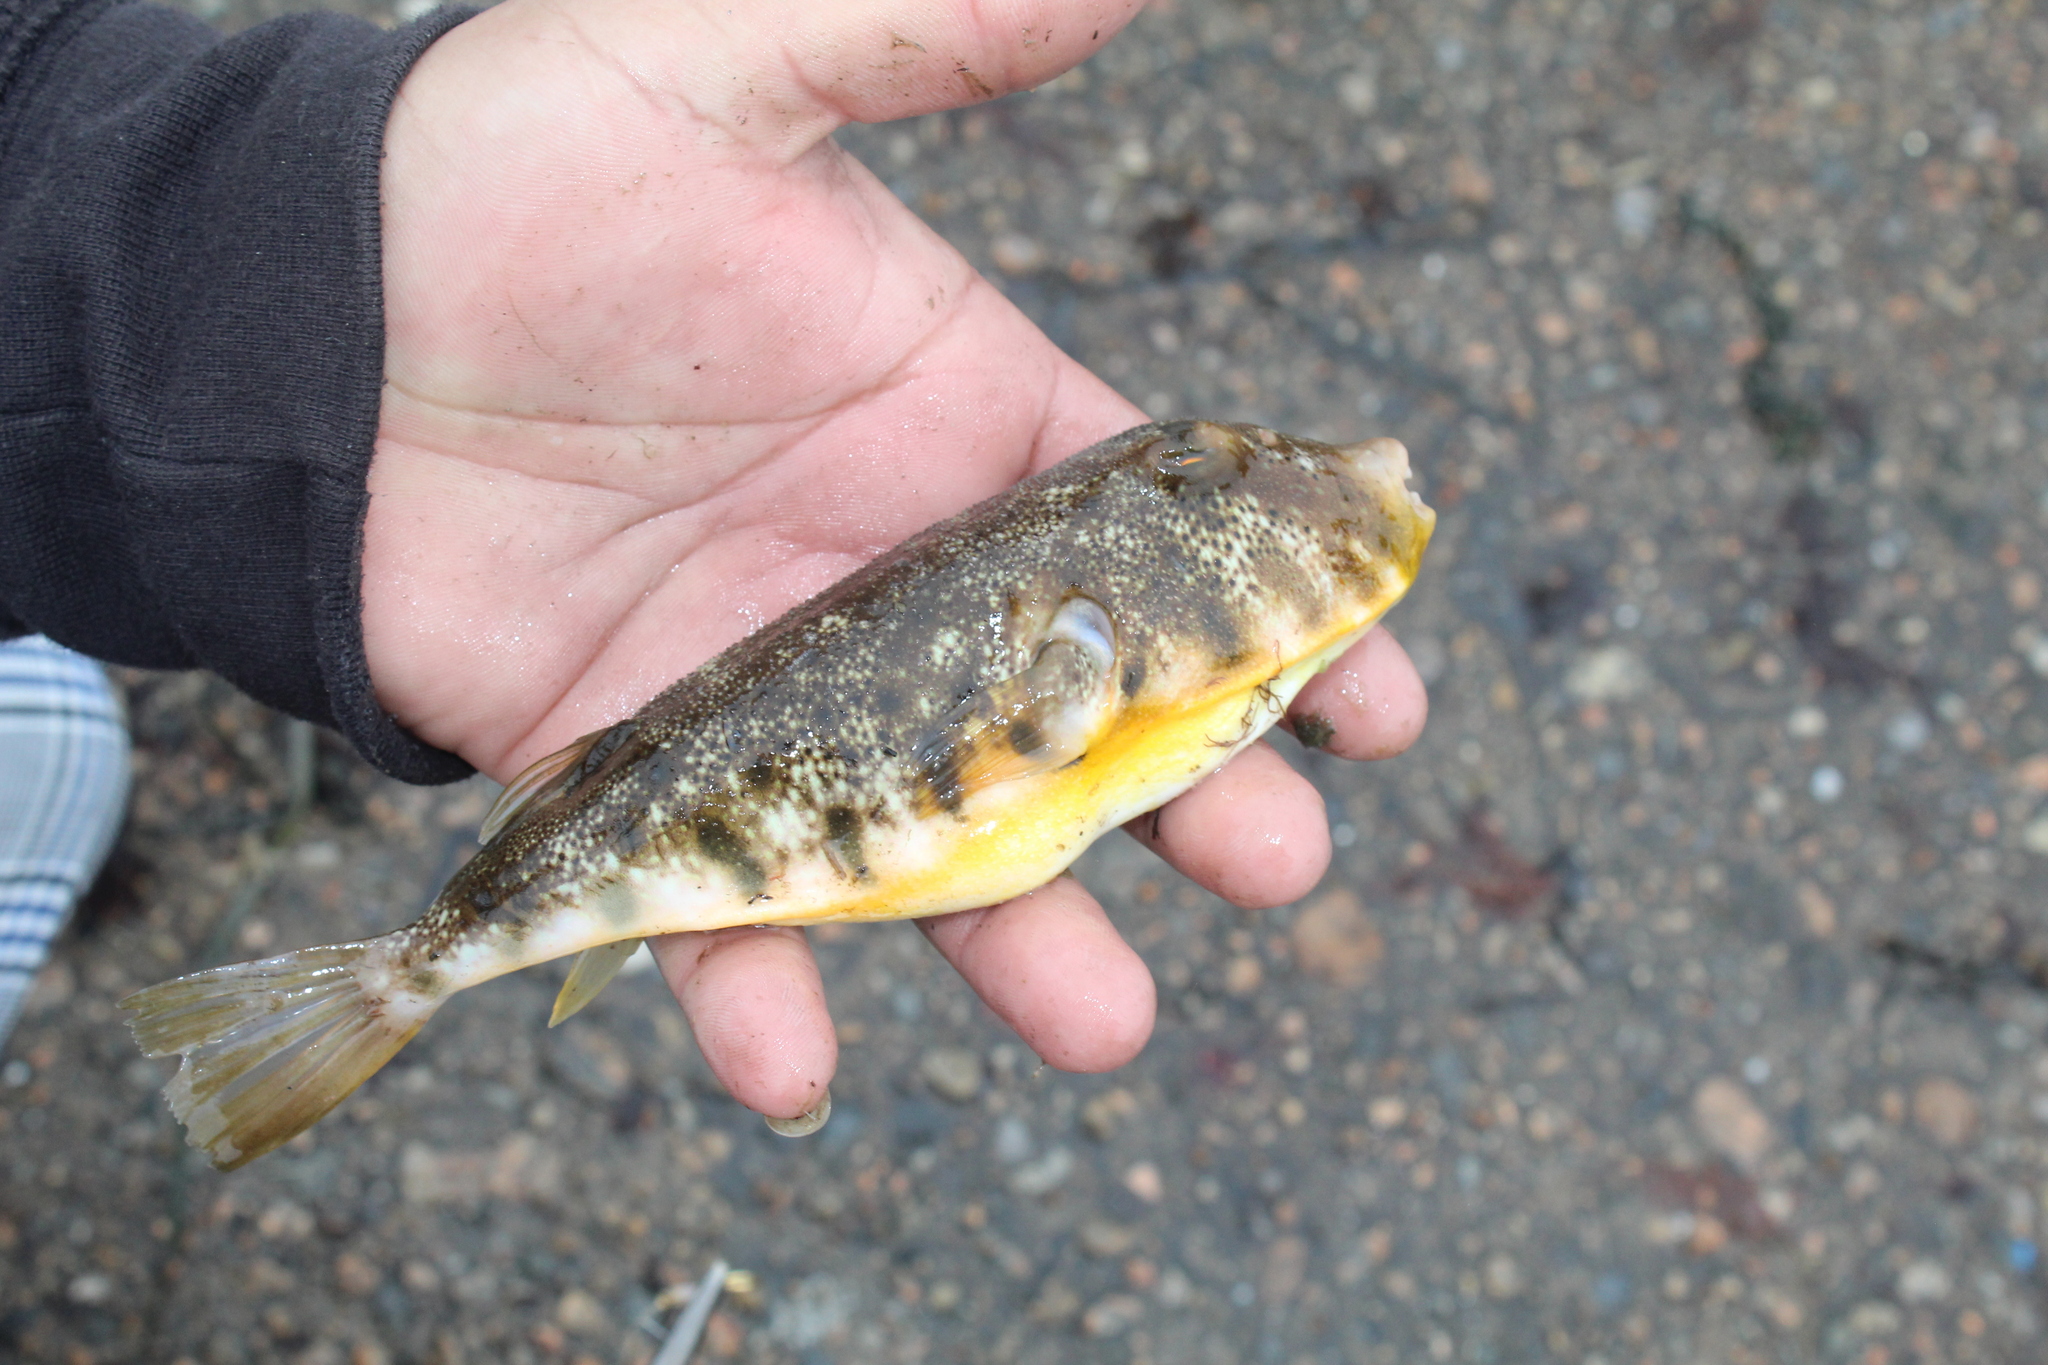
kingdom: Animalia
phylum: Chordata
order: Tetraodontiformes
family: Tetraodontidae
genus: Sphoeroides
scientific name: Sphoeroides maculatus
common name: Northern puffer
